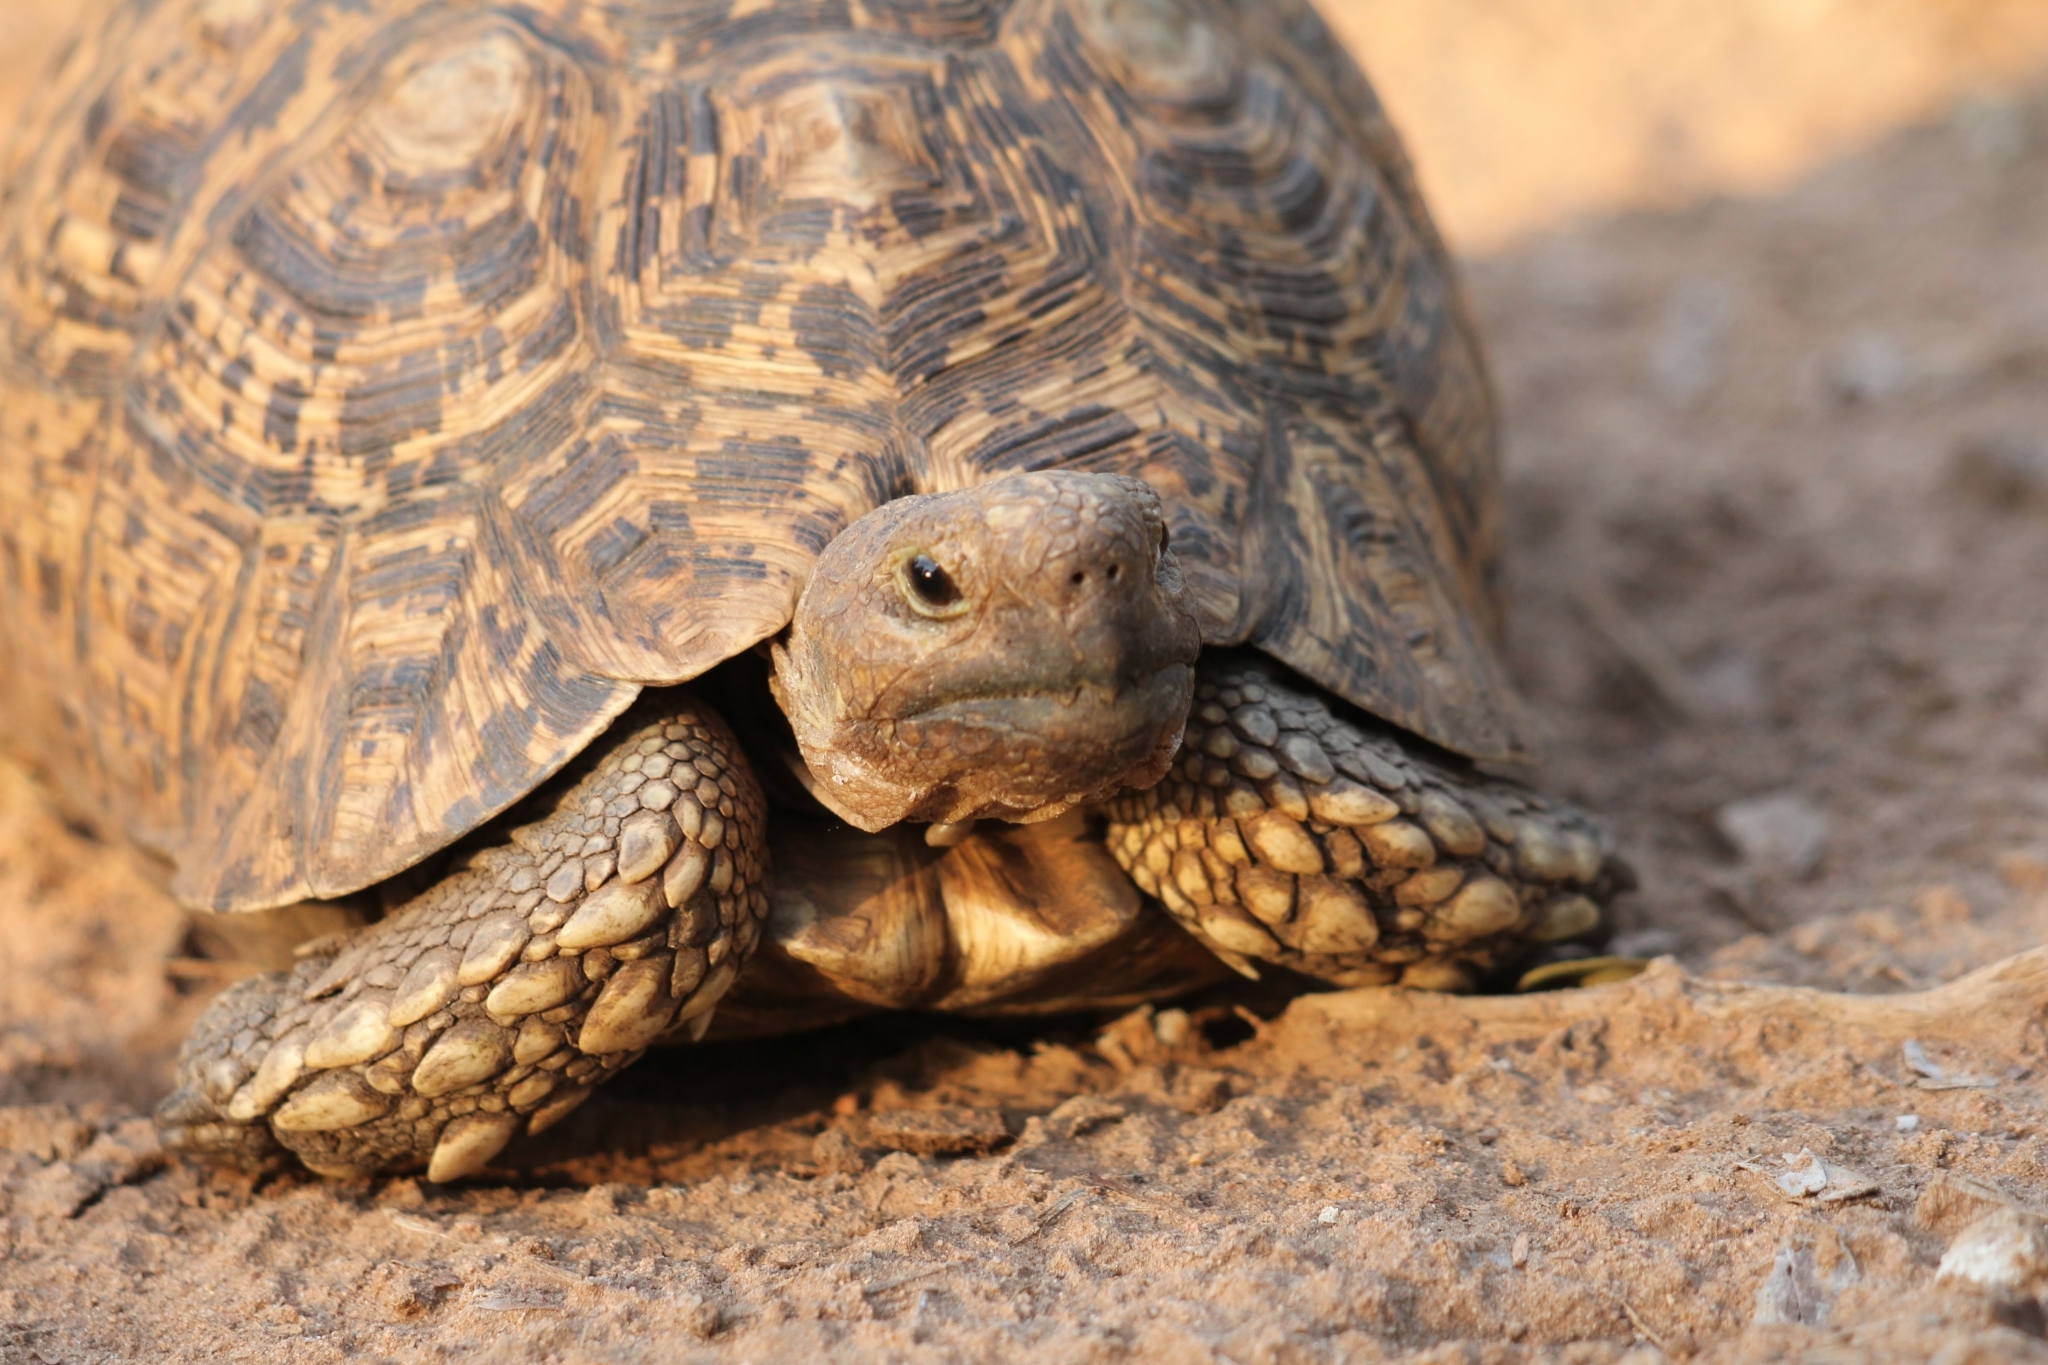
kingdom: Animalia
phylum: Chordata
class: Testudines
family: Testudinidae
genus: Stigmochelys
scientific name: Stigmochelys pardalis
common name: Leopard tortoise
